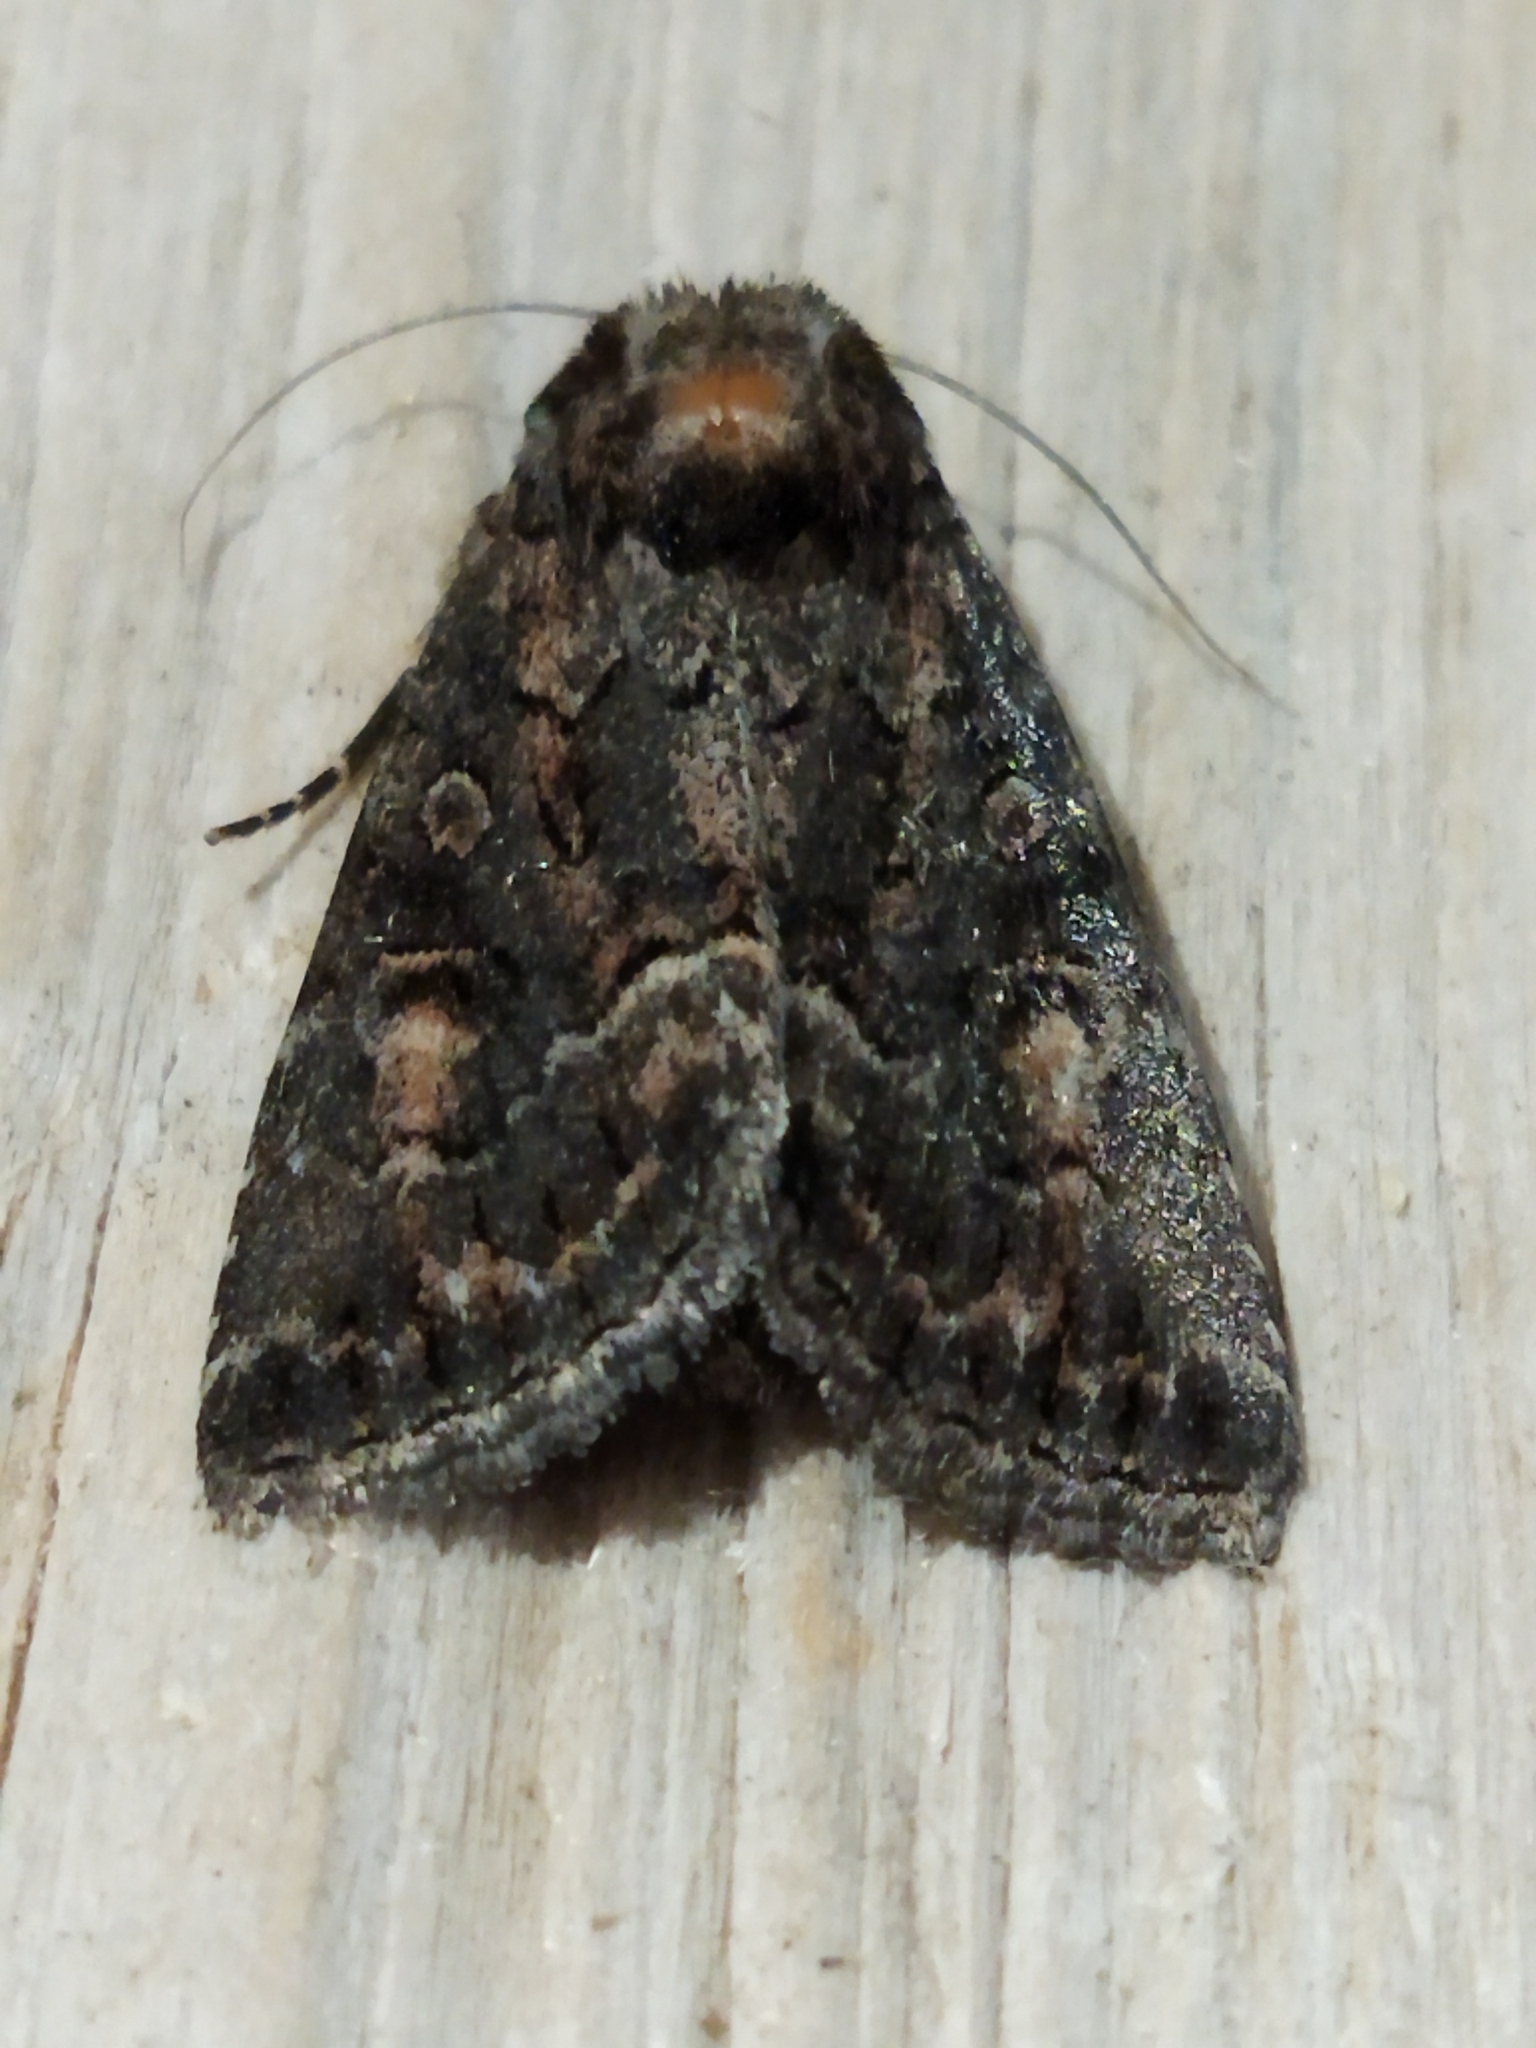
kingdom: Animalia
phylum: Arthropoda
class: Insecta
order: Lepidoptera
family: Noctuidae
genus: Thalpophila
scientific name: Thalpophila matura
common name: Straw underwing
